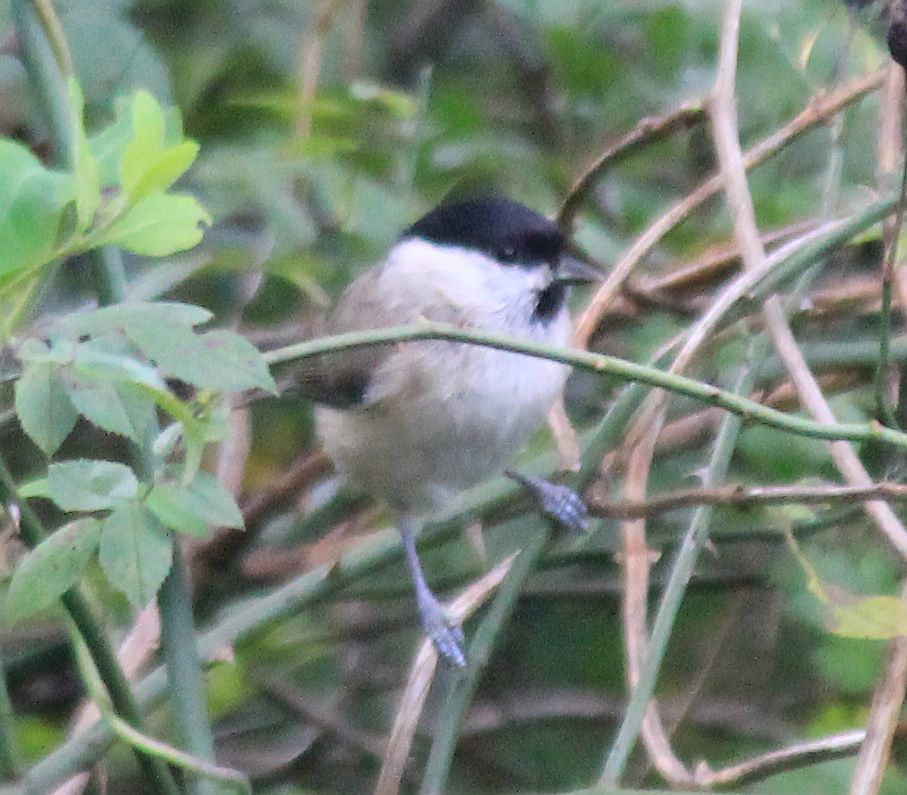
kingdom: Animalia
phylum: Chordata
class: Aves
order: Passeriformes
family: Paridae
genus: Poecile
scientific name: Poecile palustris
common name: Marsh tit
